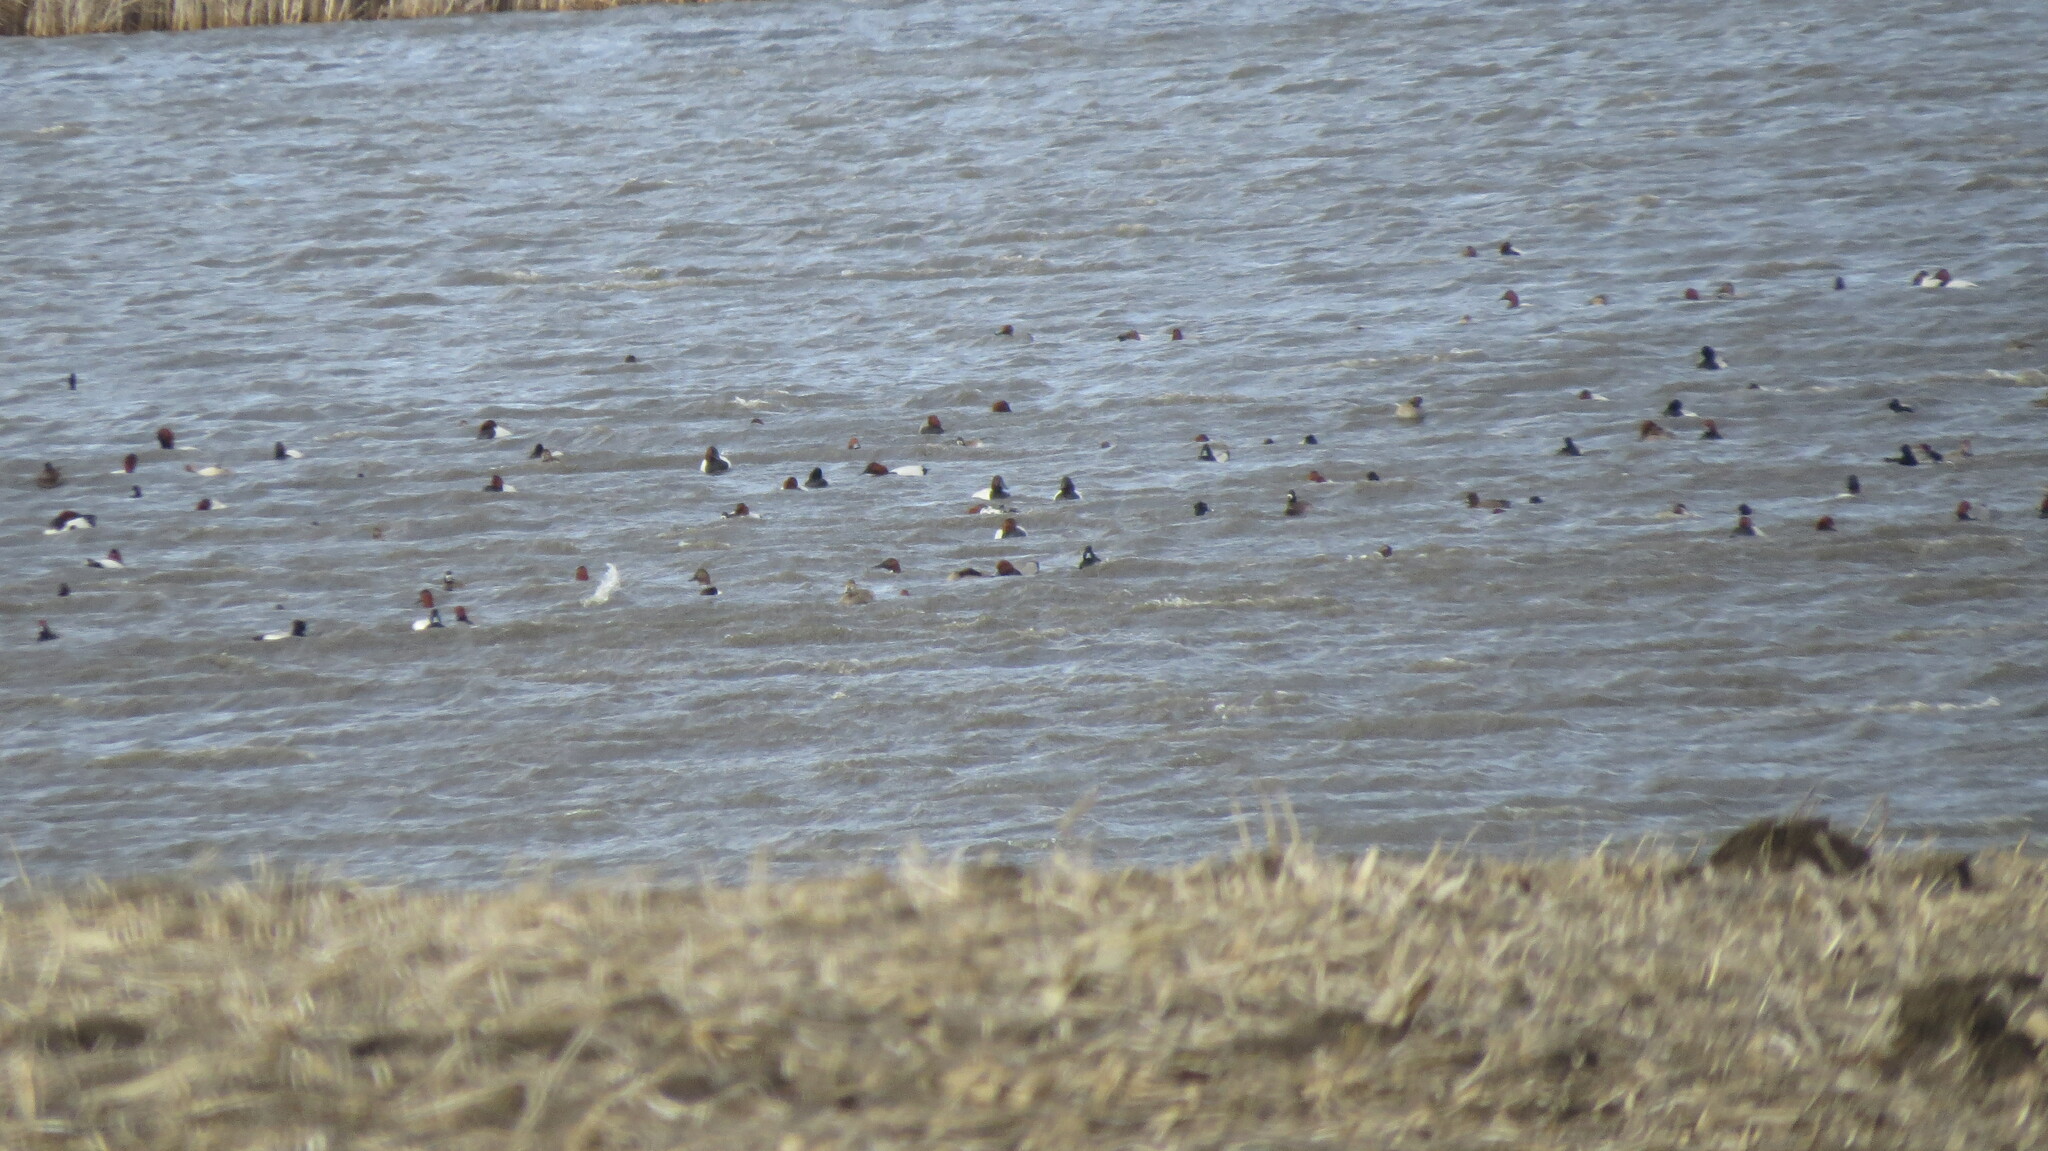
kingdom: Animalia
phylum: Chordata
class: Aves
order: Anseriformes
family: Anatidae
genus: Aythya
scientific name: Aythya americana
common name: Redhead
